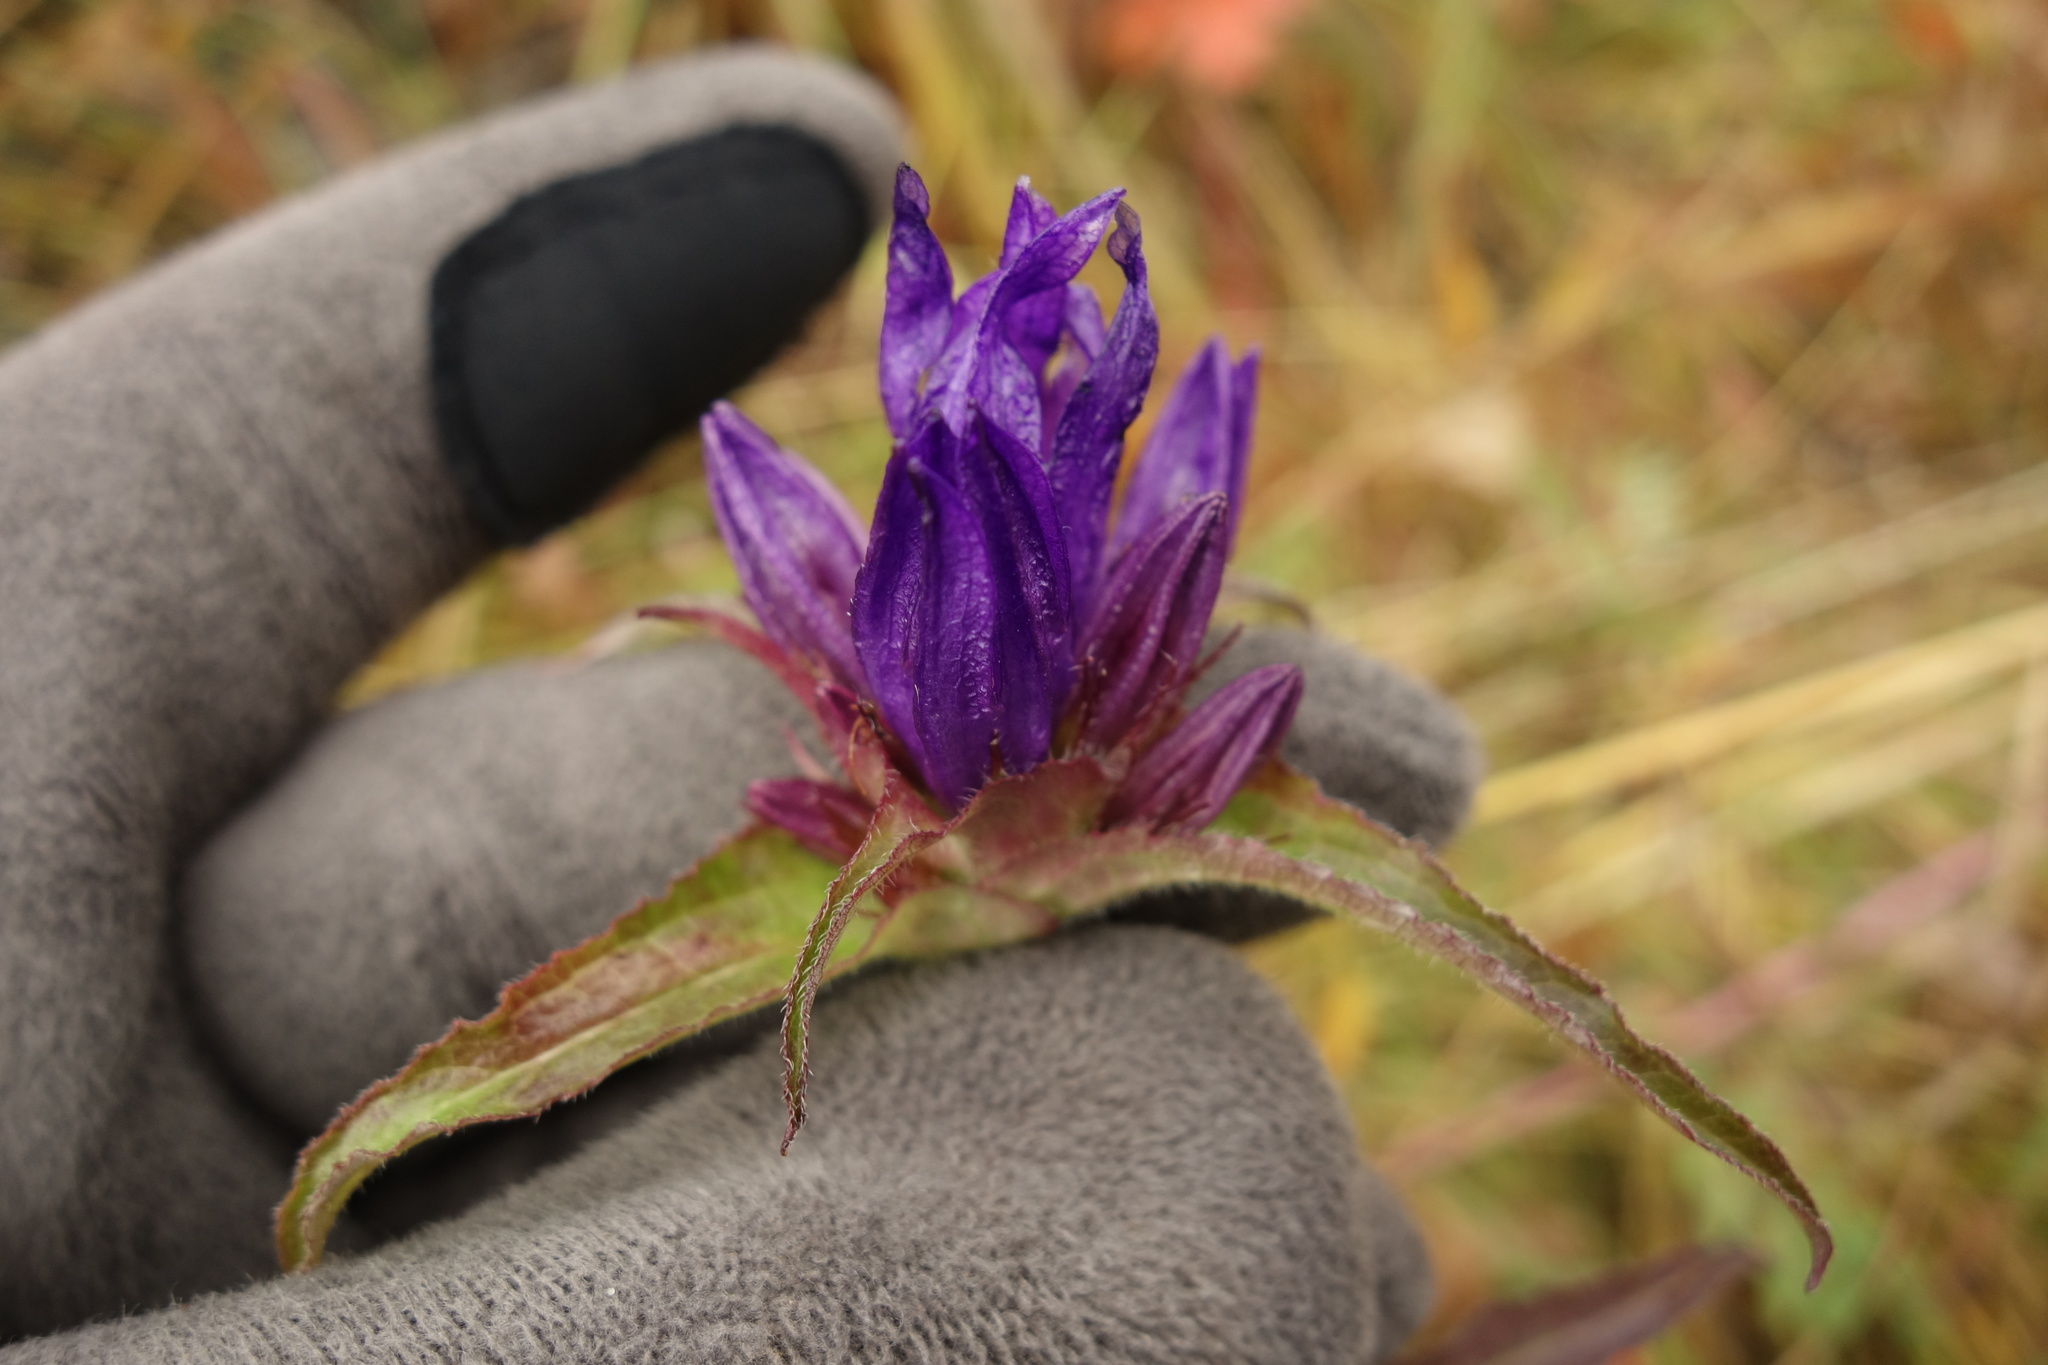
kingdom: Plantae
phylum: Tracheophyta
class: Magnoliopsida
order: Asterales
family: Campanulaceae
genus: Campanula
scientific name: Campanula glomerata
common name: Clustered bellflower
